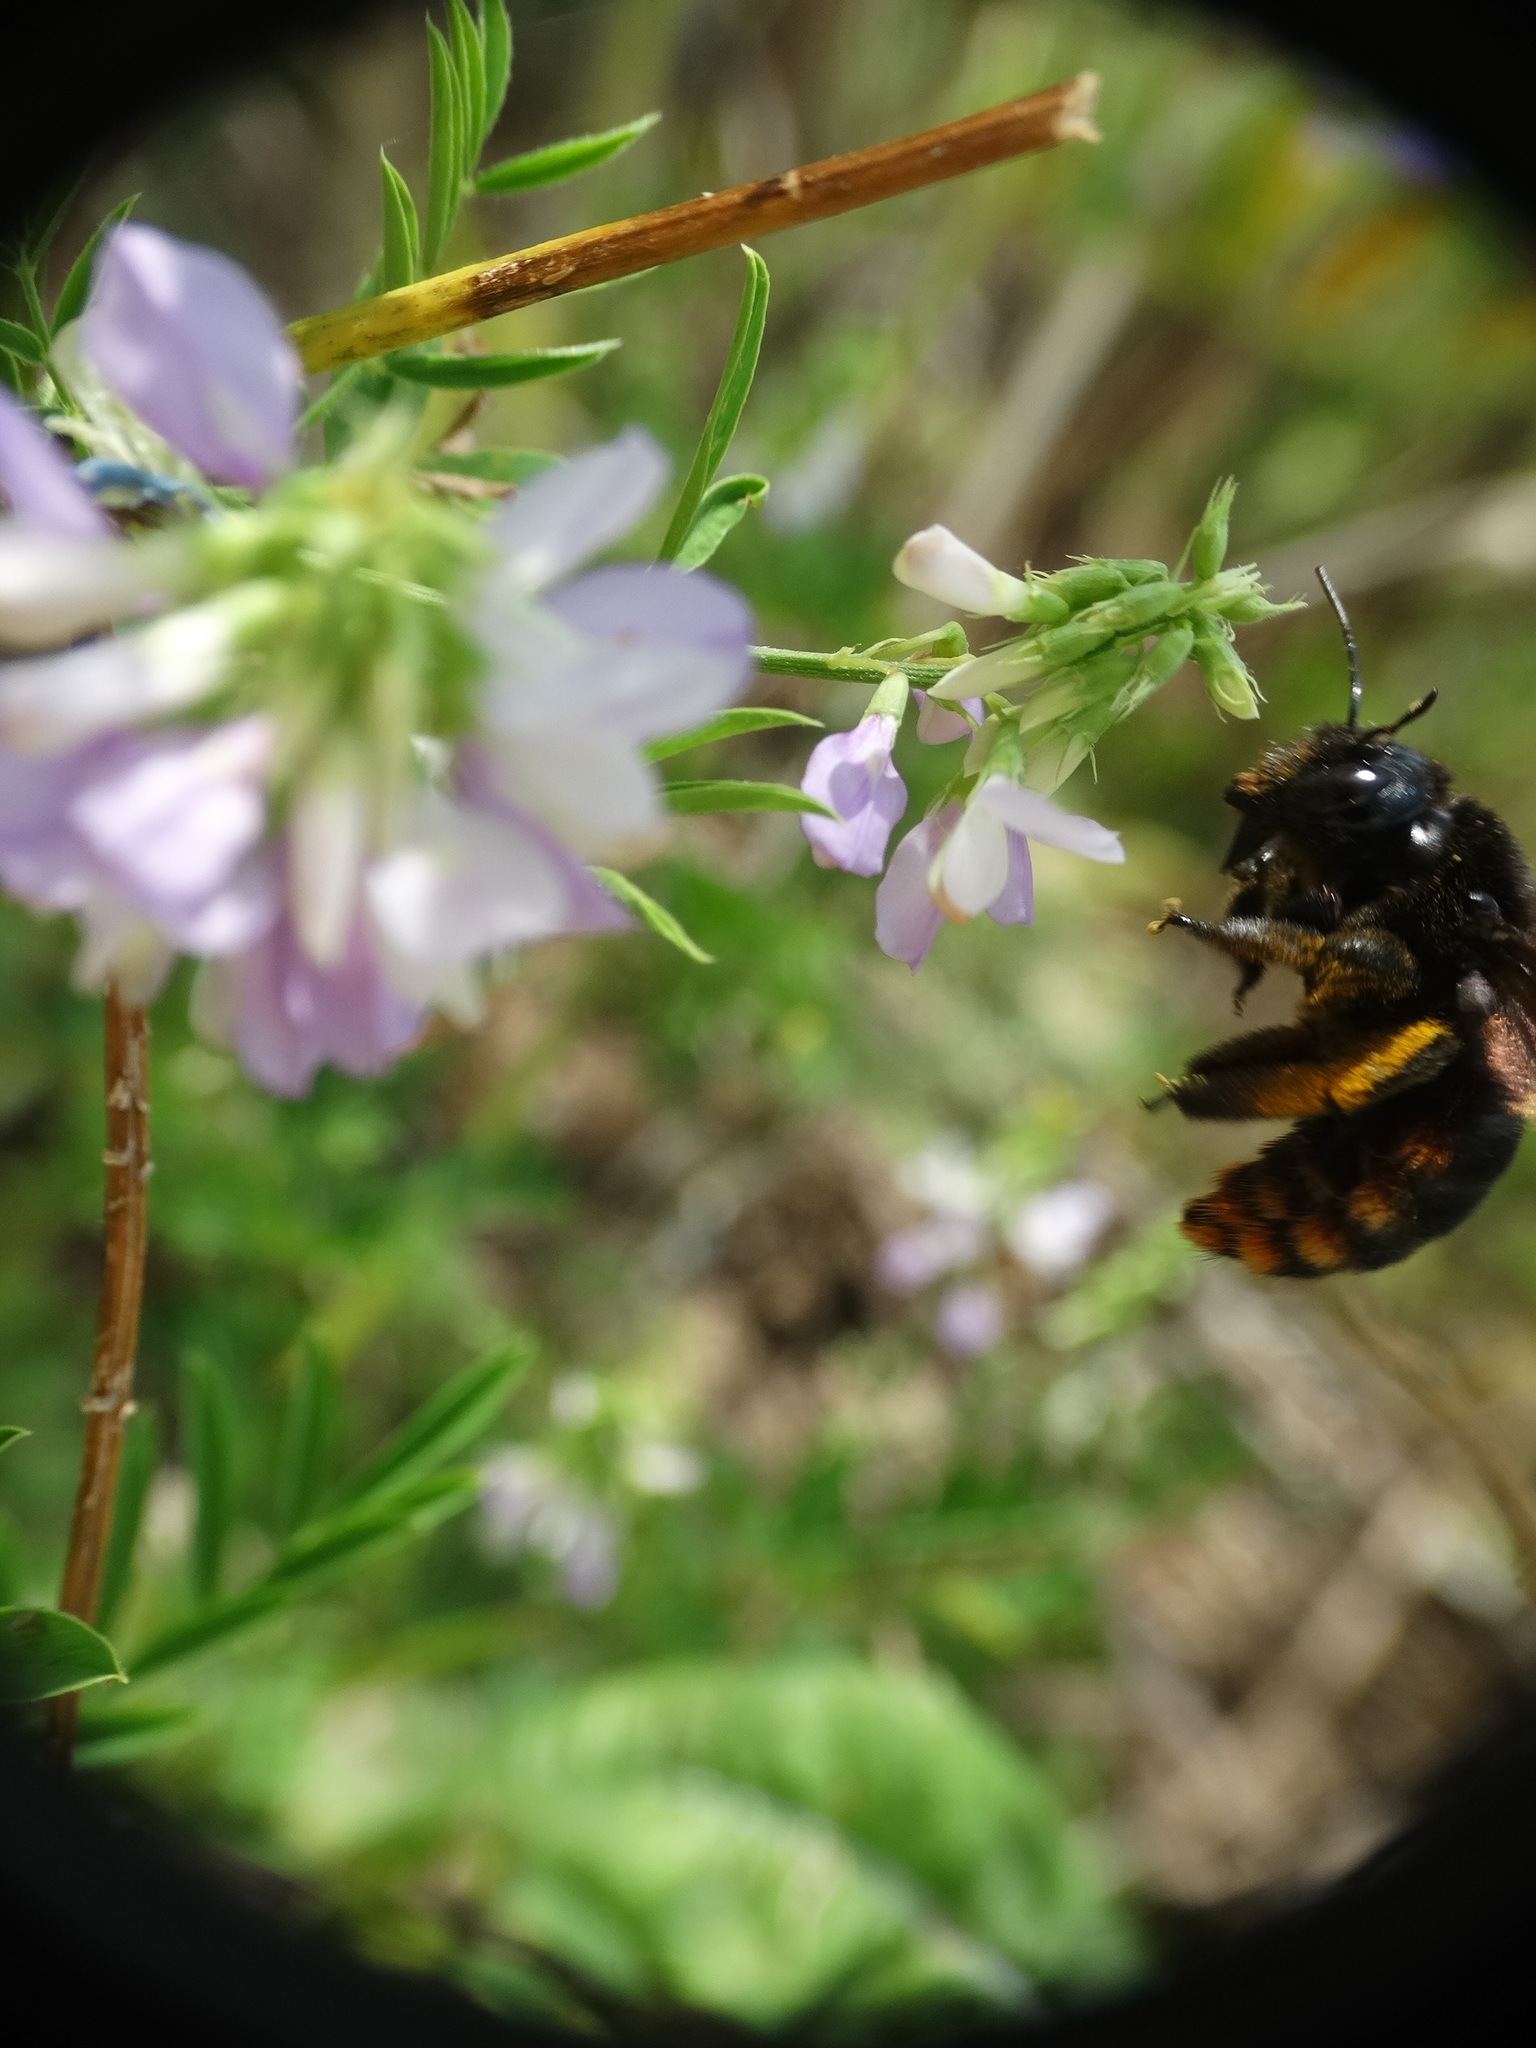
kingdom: Animalia
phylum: Arthropoda
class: Insecta
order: Hymenoptera
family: Apidae
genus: Xylocopa
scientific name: Xylocopa augusti
